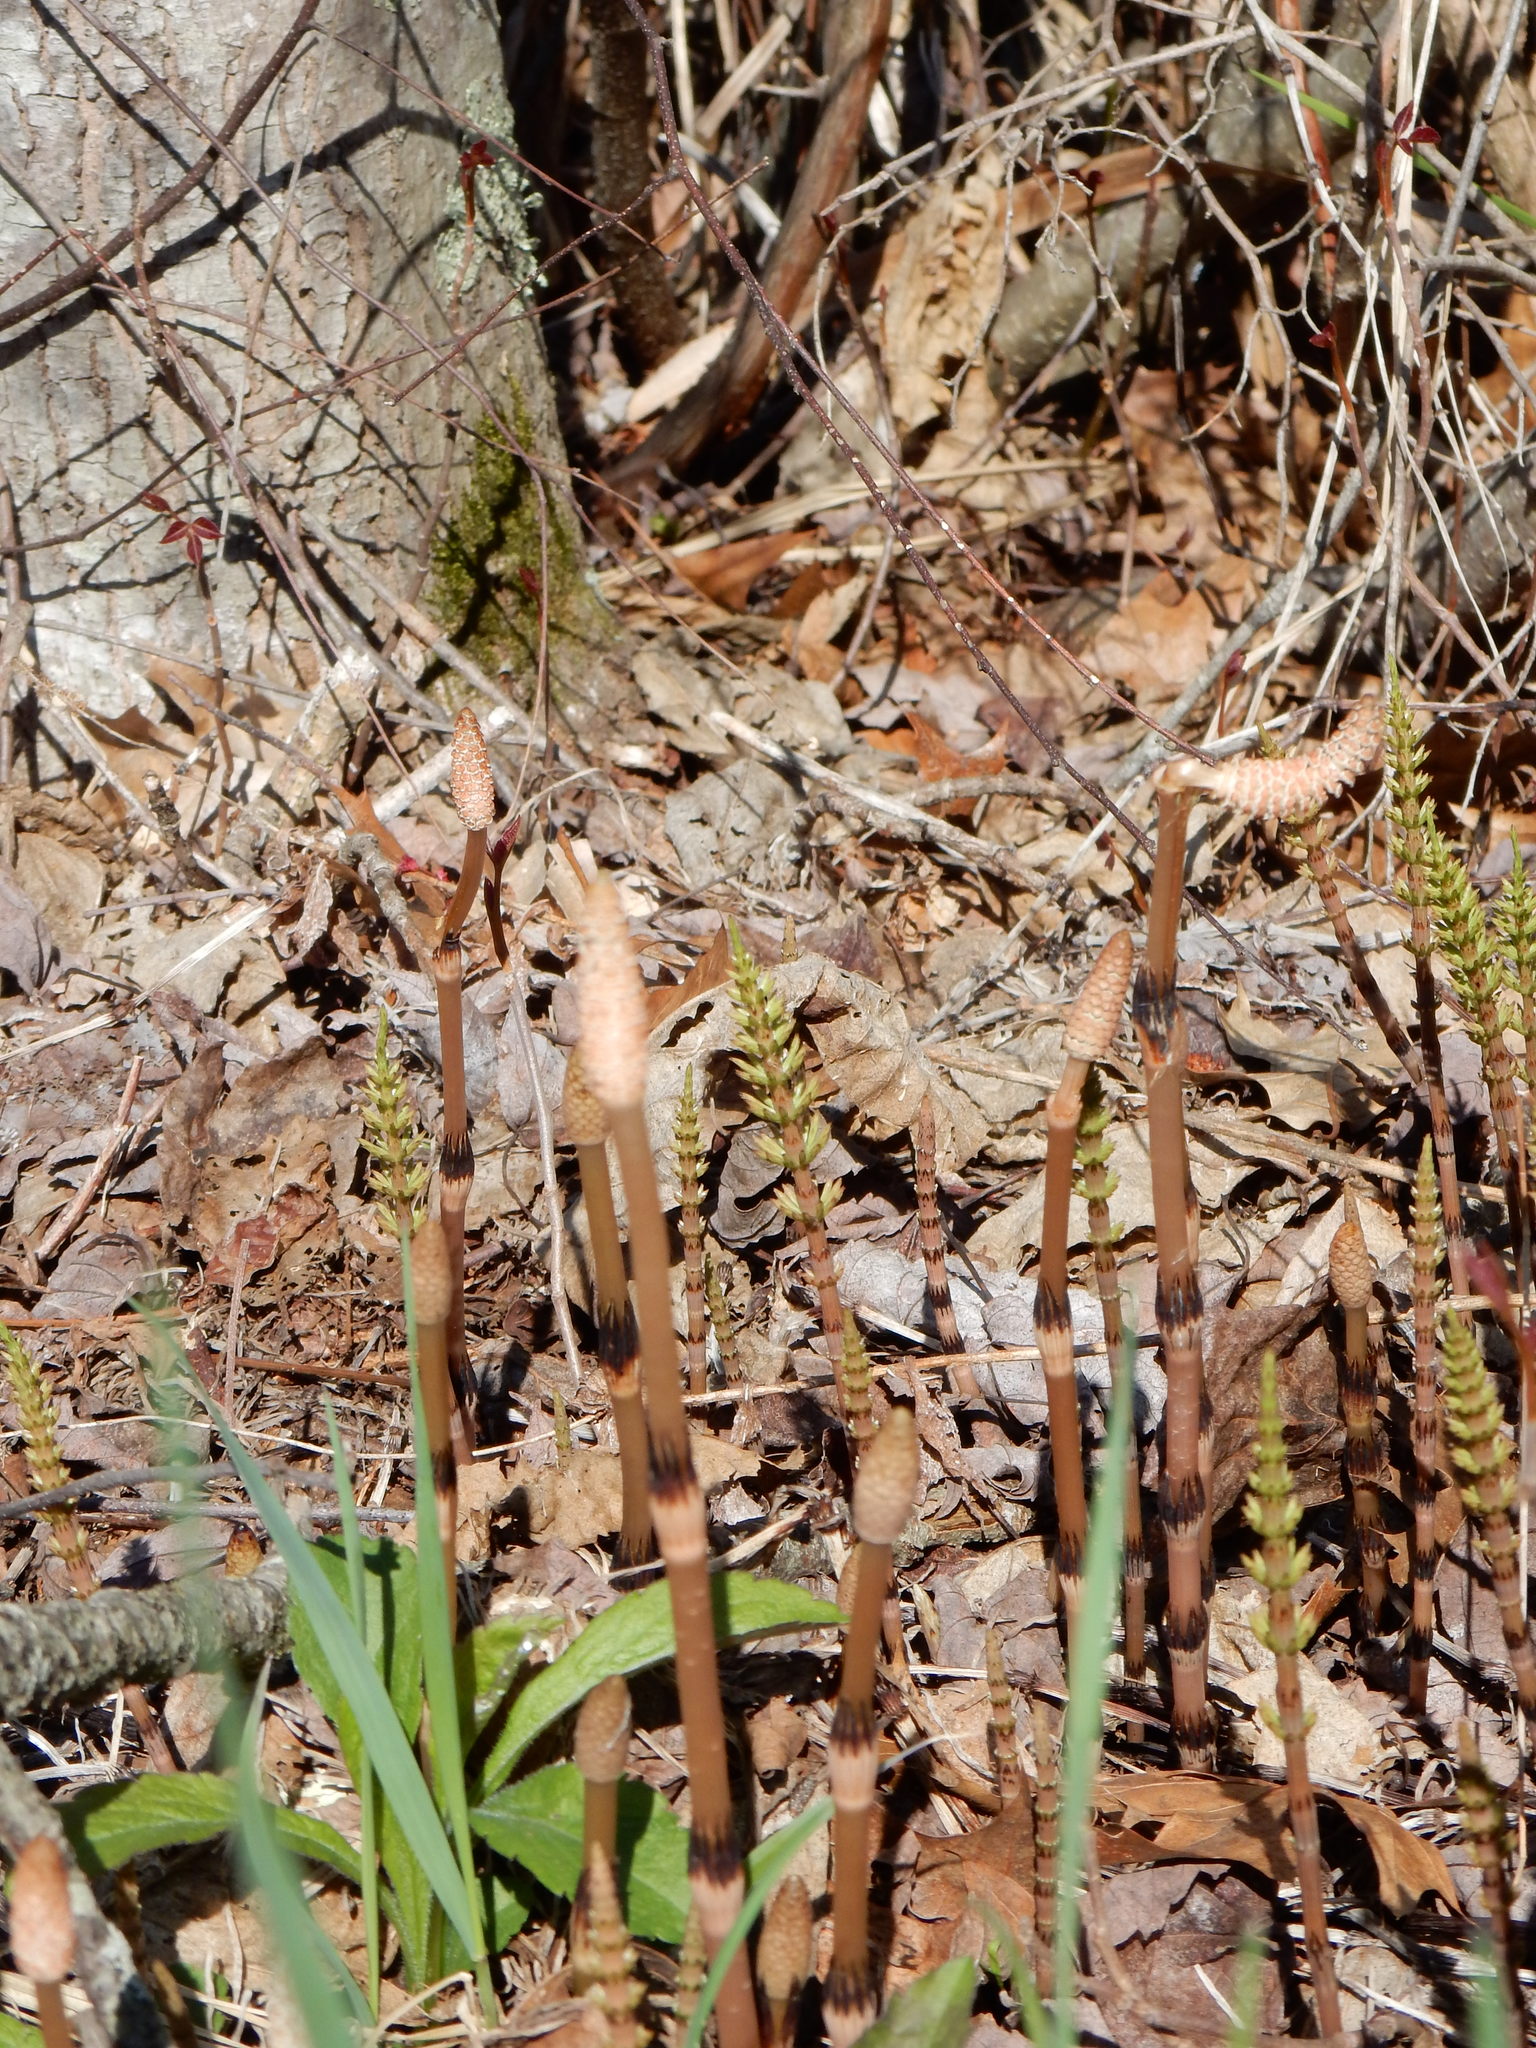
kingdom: Plantae
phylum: Tracheophyta
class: Polypodiopsida
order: Equisetales
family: Equisetaceae
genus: Equisetum
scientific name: Equisetum arvense
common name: Field horsetail
